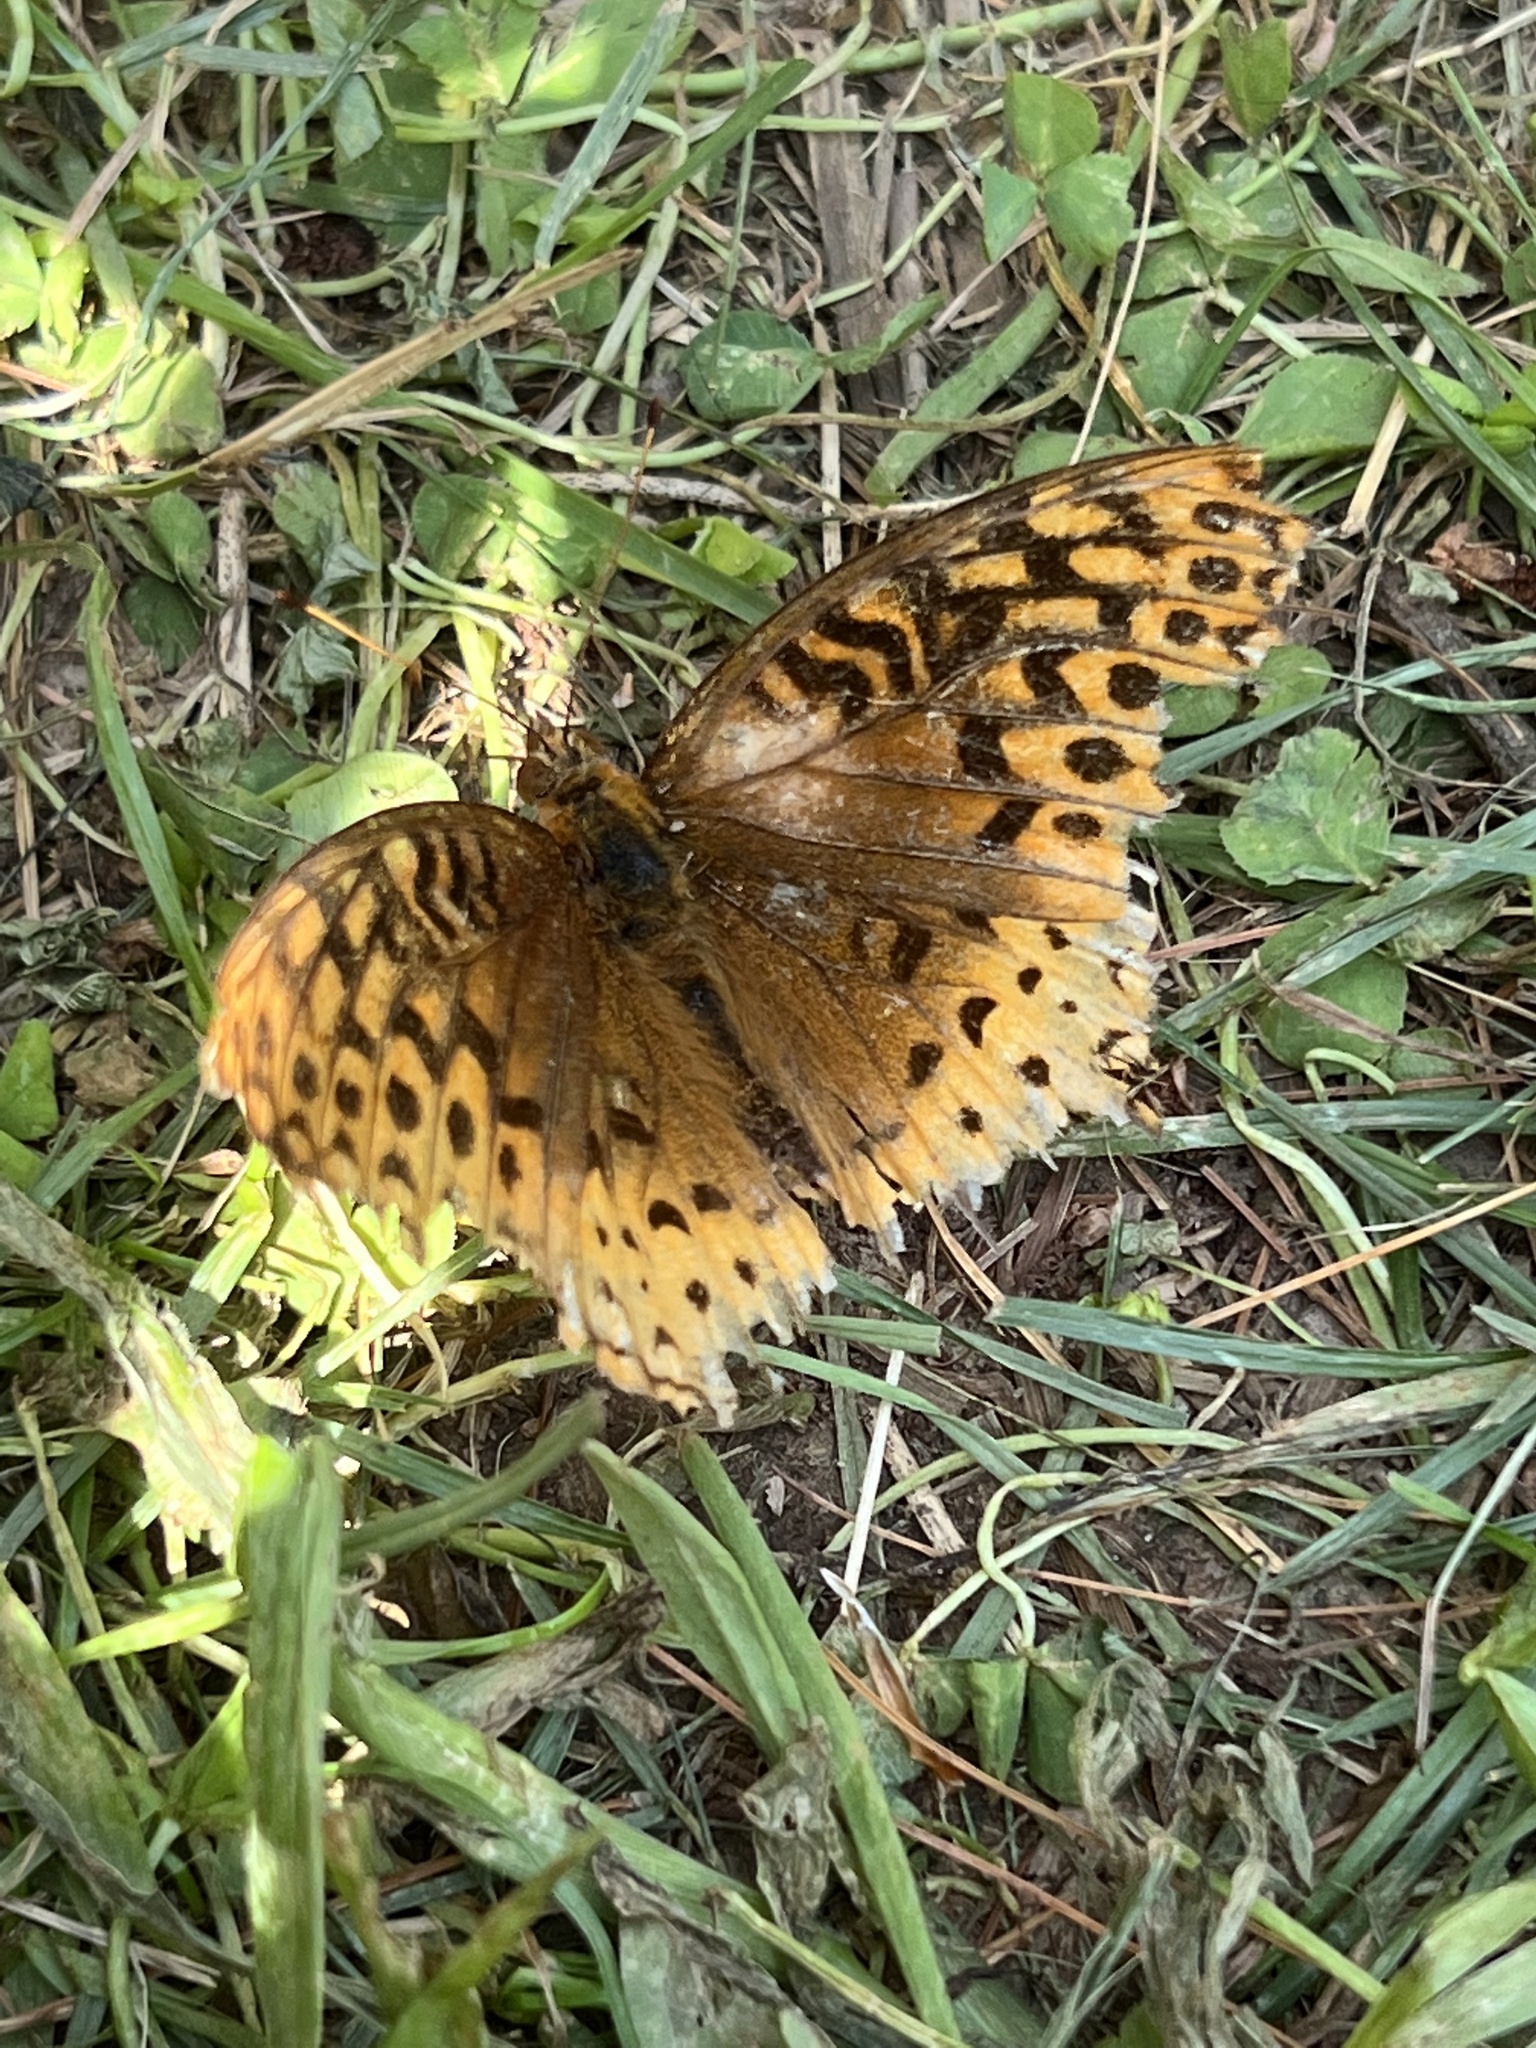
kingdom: Animalia
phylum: Arthropoda
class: Insecta
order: Lepidoptera
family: Nymphalidae
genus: Speyeria
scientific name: Speyeria cybele
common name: Great spangled fritillary
